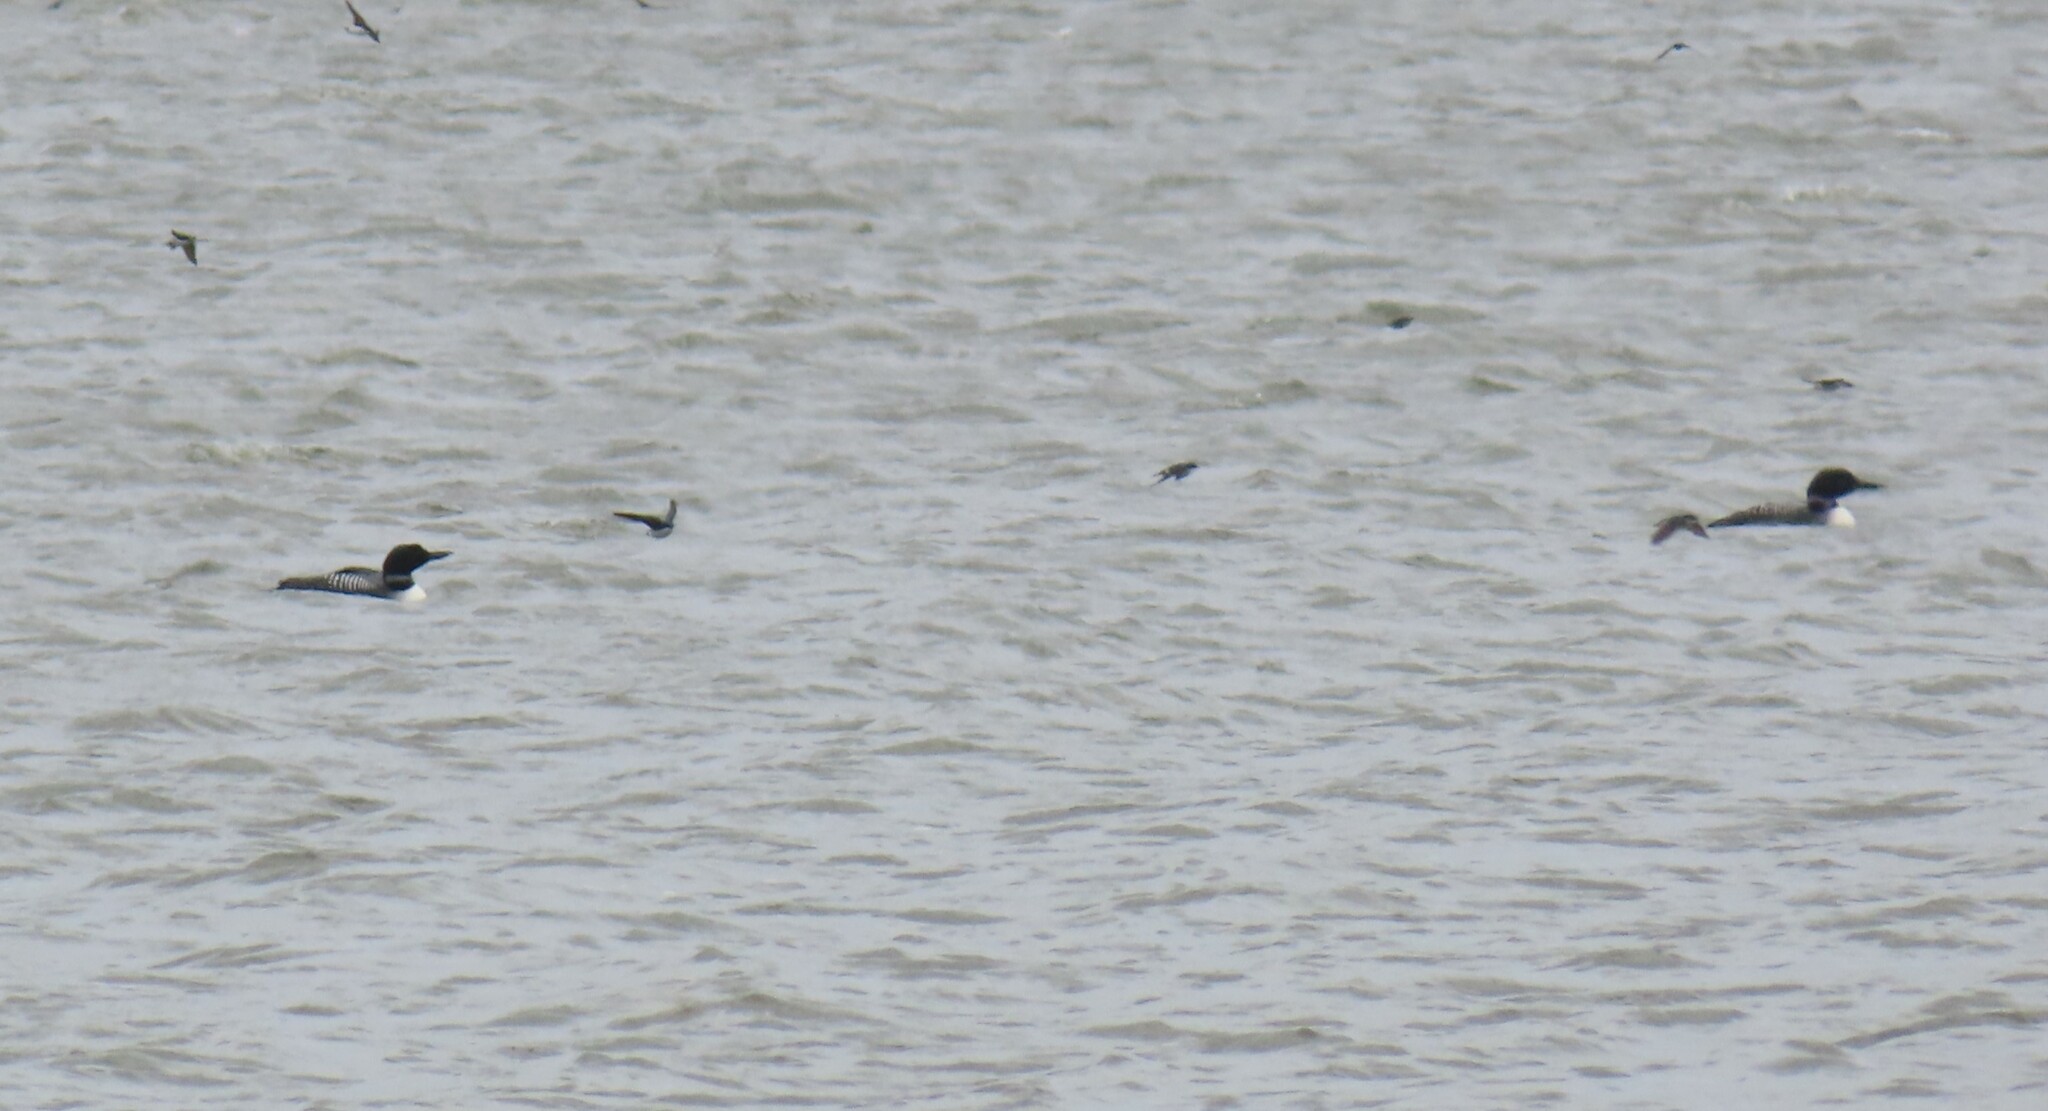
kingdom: Animalia
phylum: Chordata
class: Aves
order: Gaviiformes
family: Gaviidae
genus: Gavia
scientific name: Gavia immer
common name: Common loon
